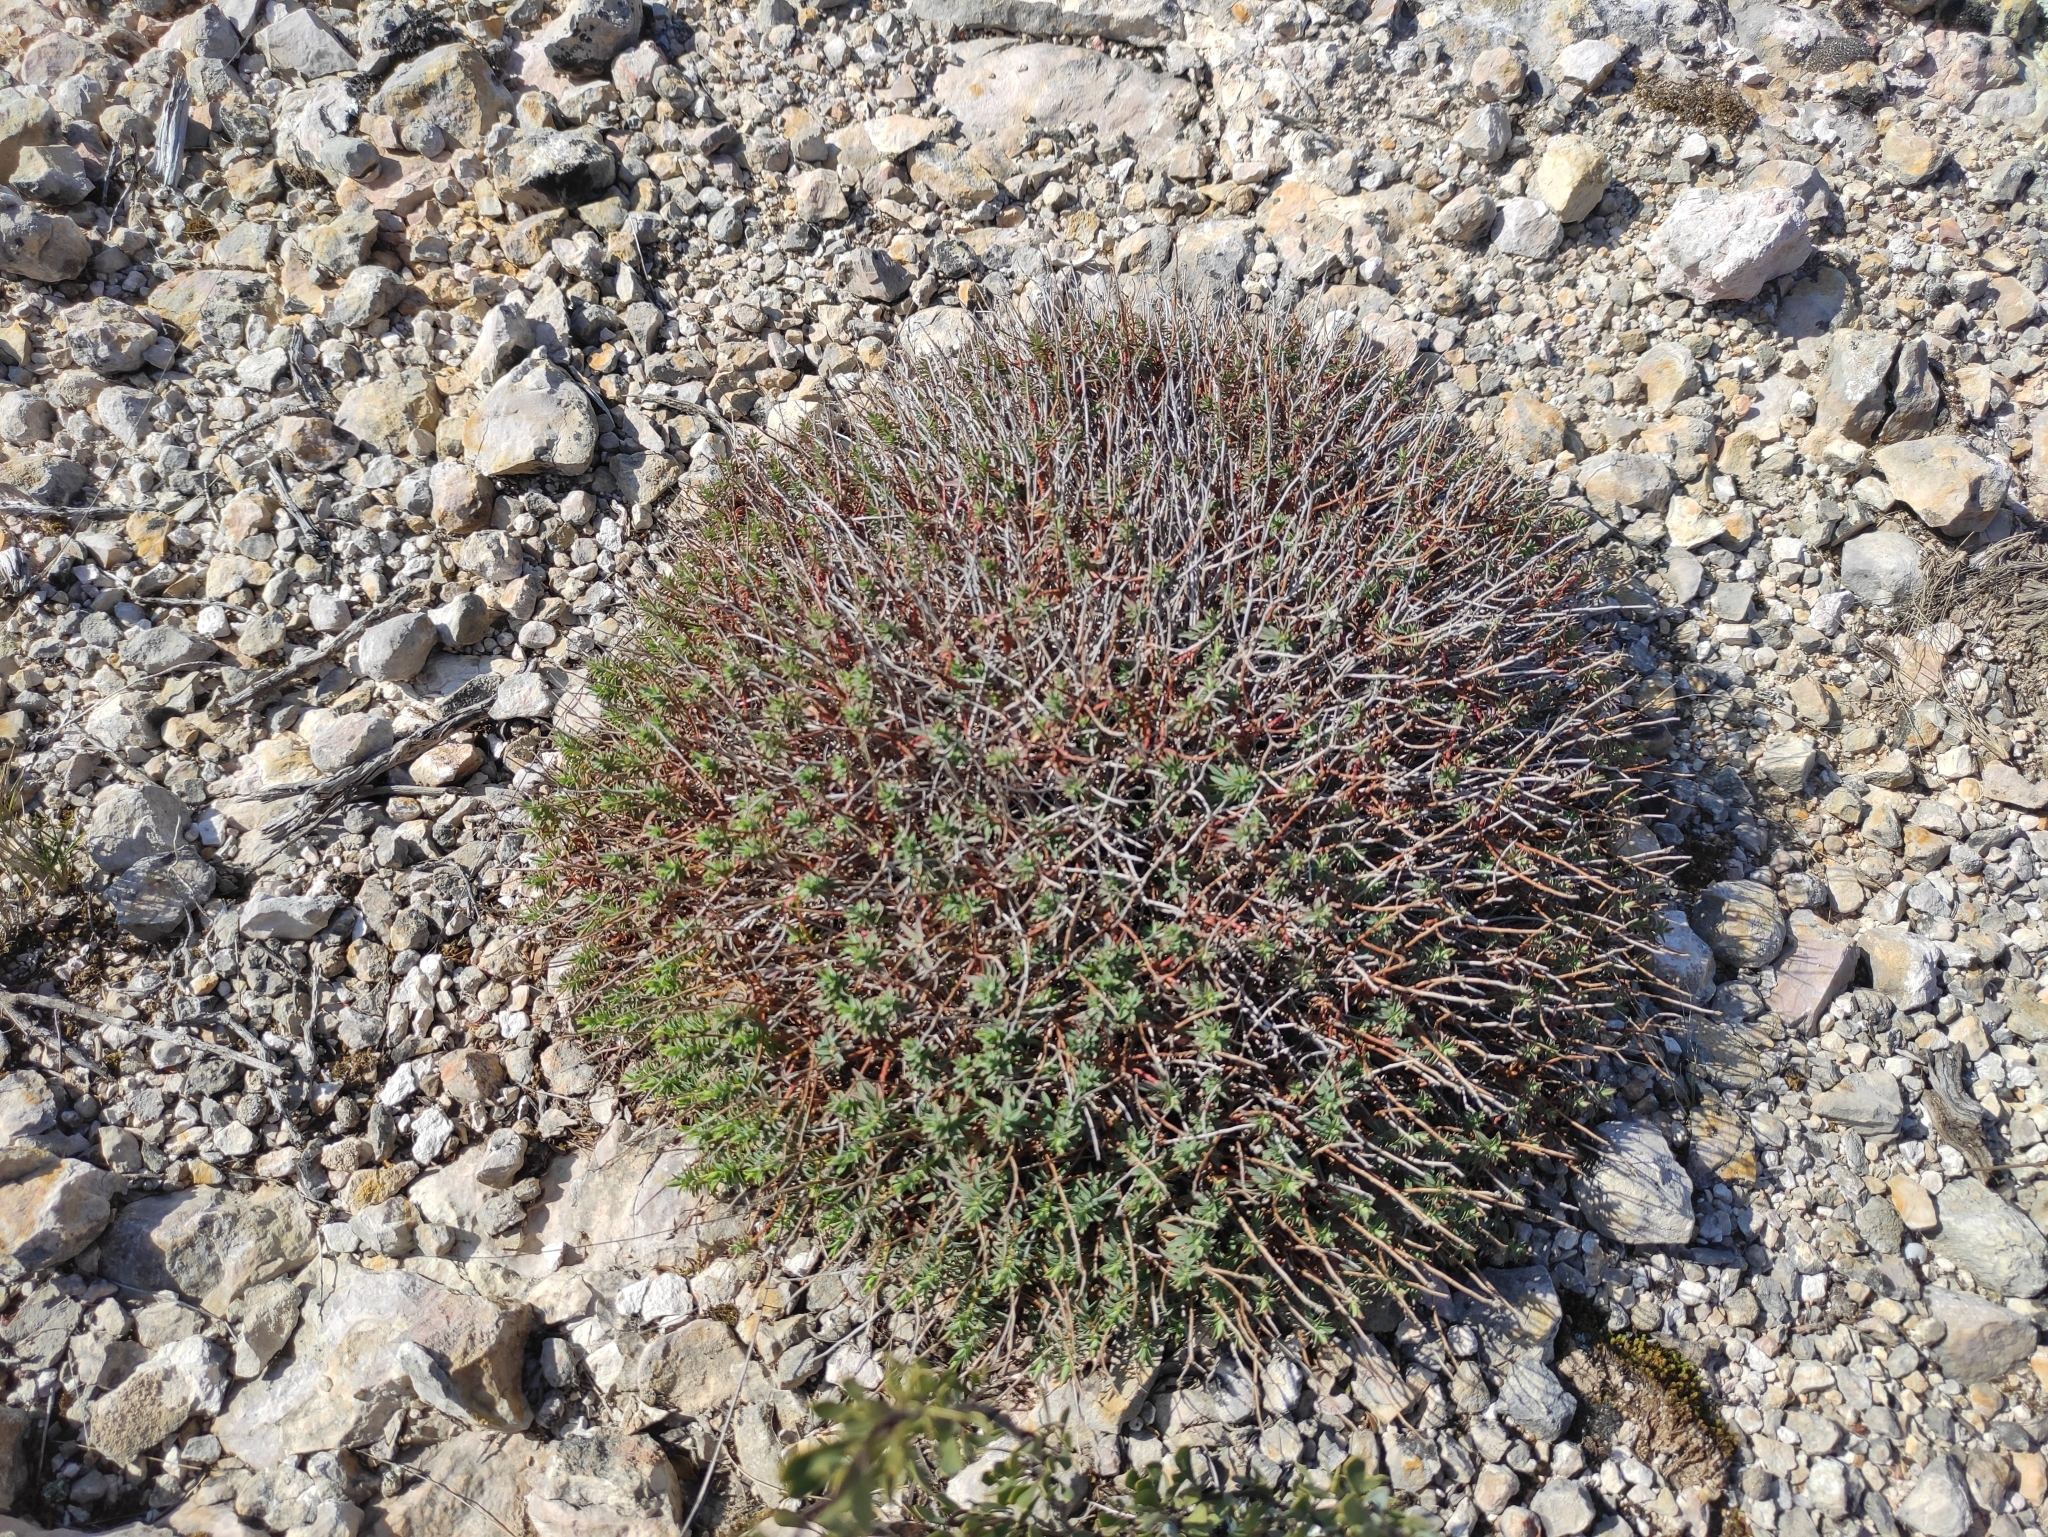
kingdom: Plantae
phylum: Tracheophyta
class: Magnoliopsida
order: Malpighiales
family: Euphorbiaceae
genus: Euphorbia
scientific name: Euphorbia spinosa
